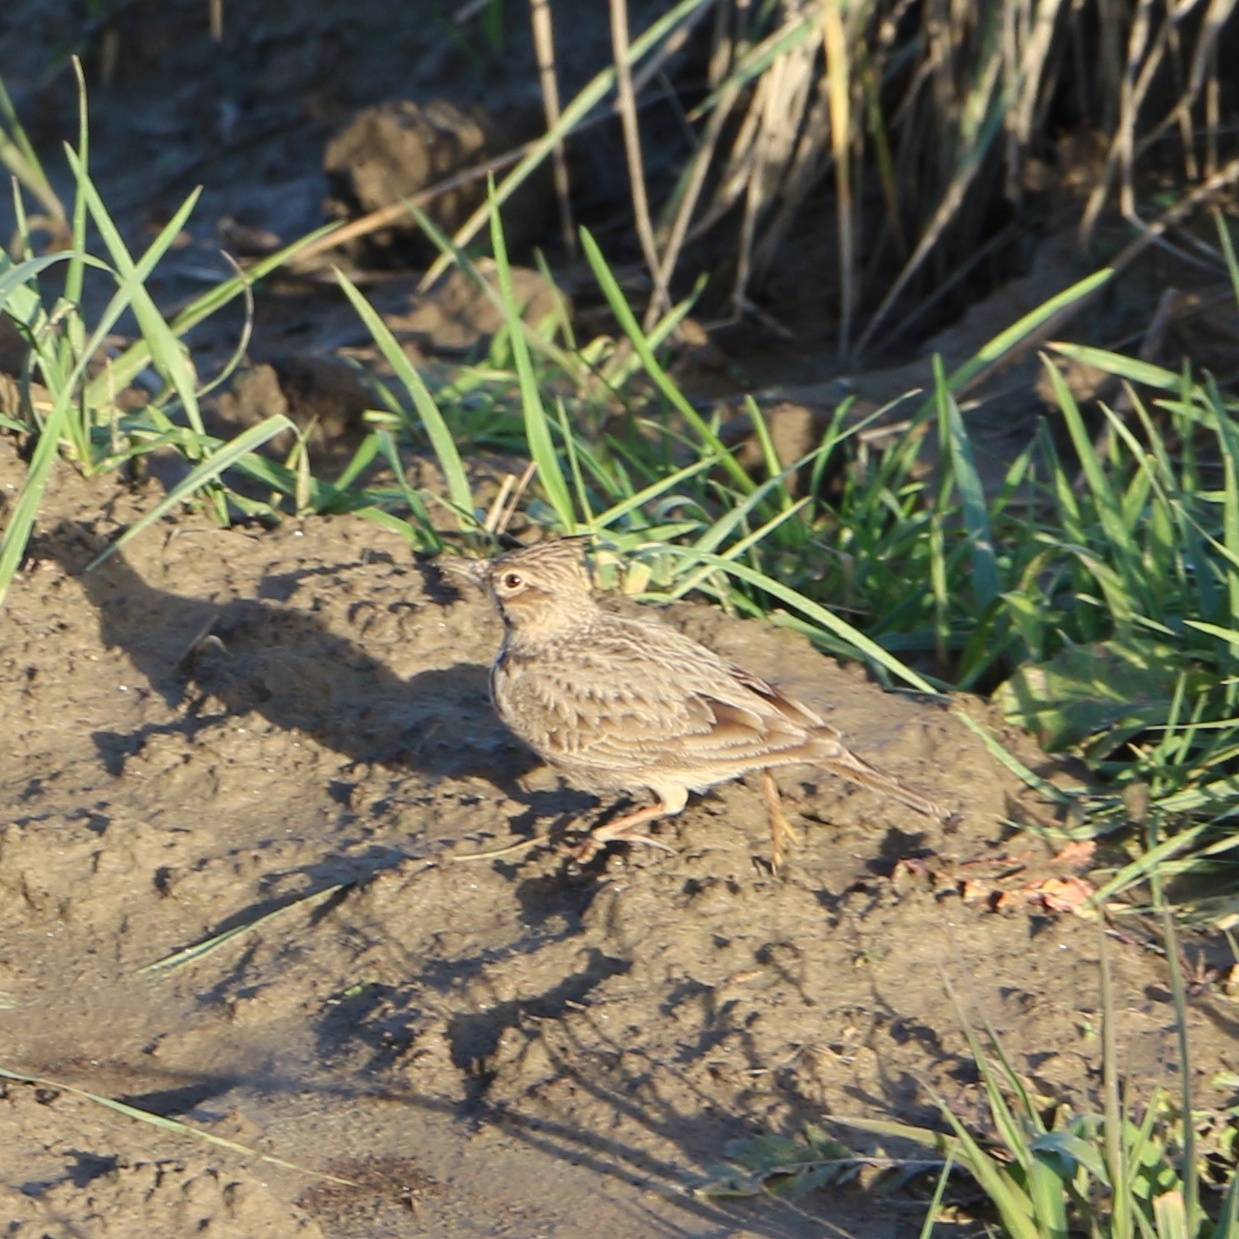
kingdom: Animalia
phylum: Chordata
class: Aves
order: Passeriformes
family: Alaudidae
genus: Galerida
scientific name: Galerida cristata
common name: Crested lark
